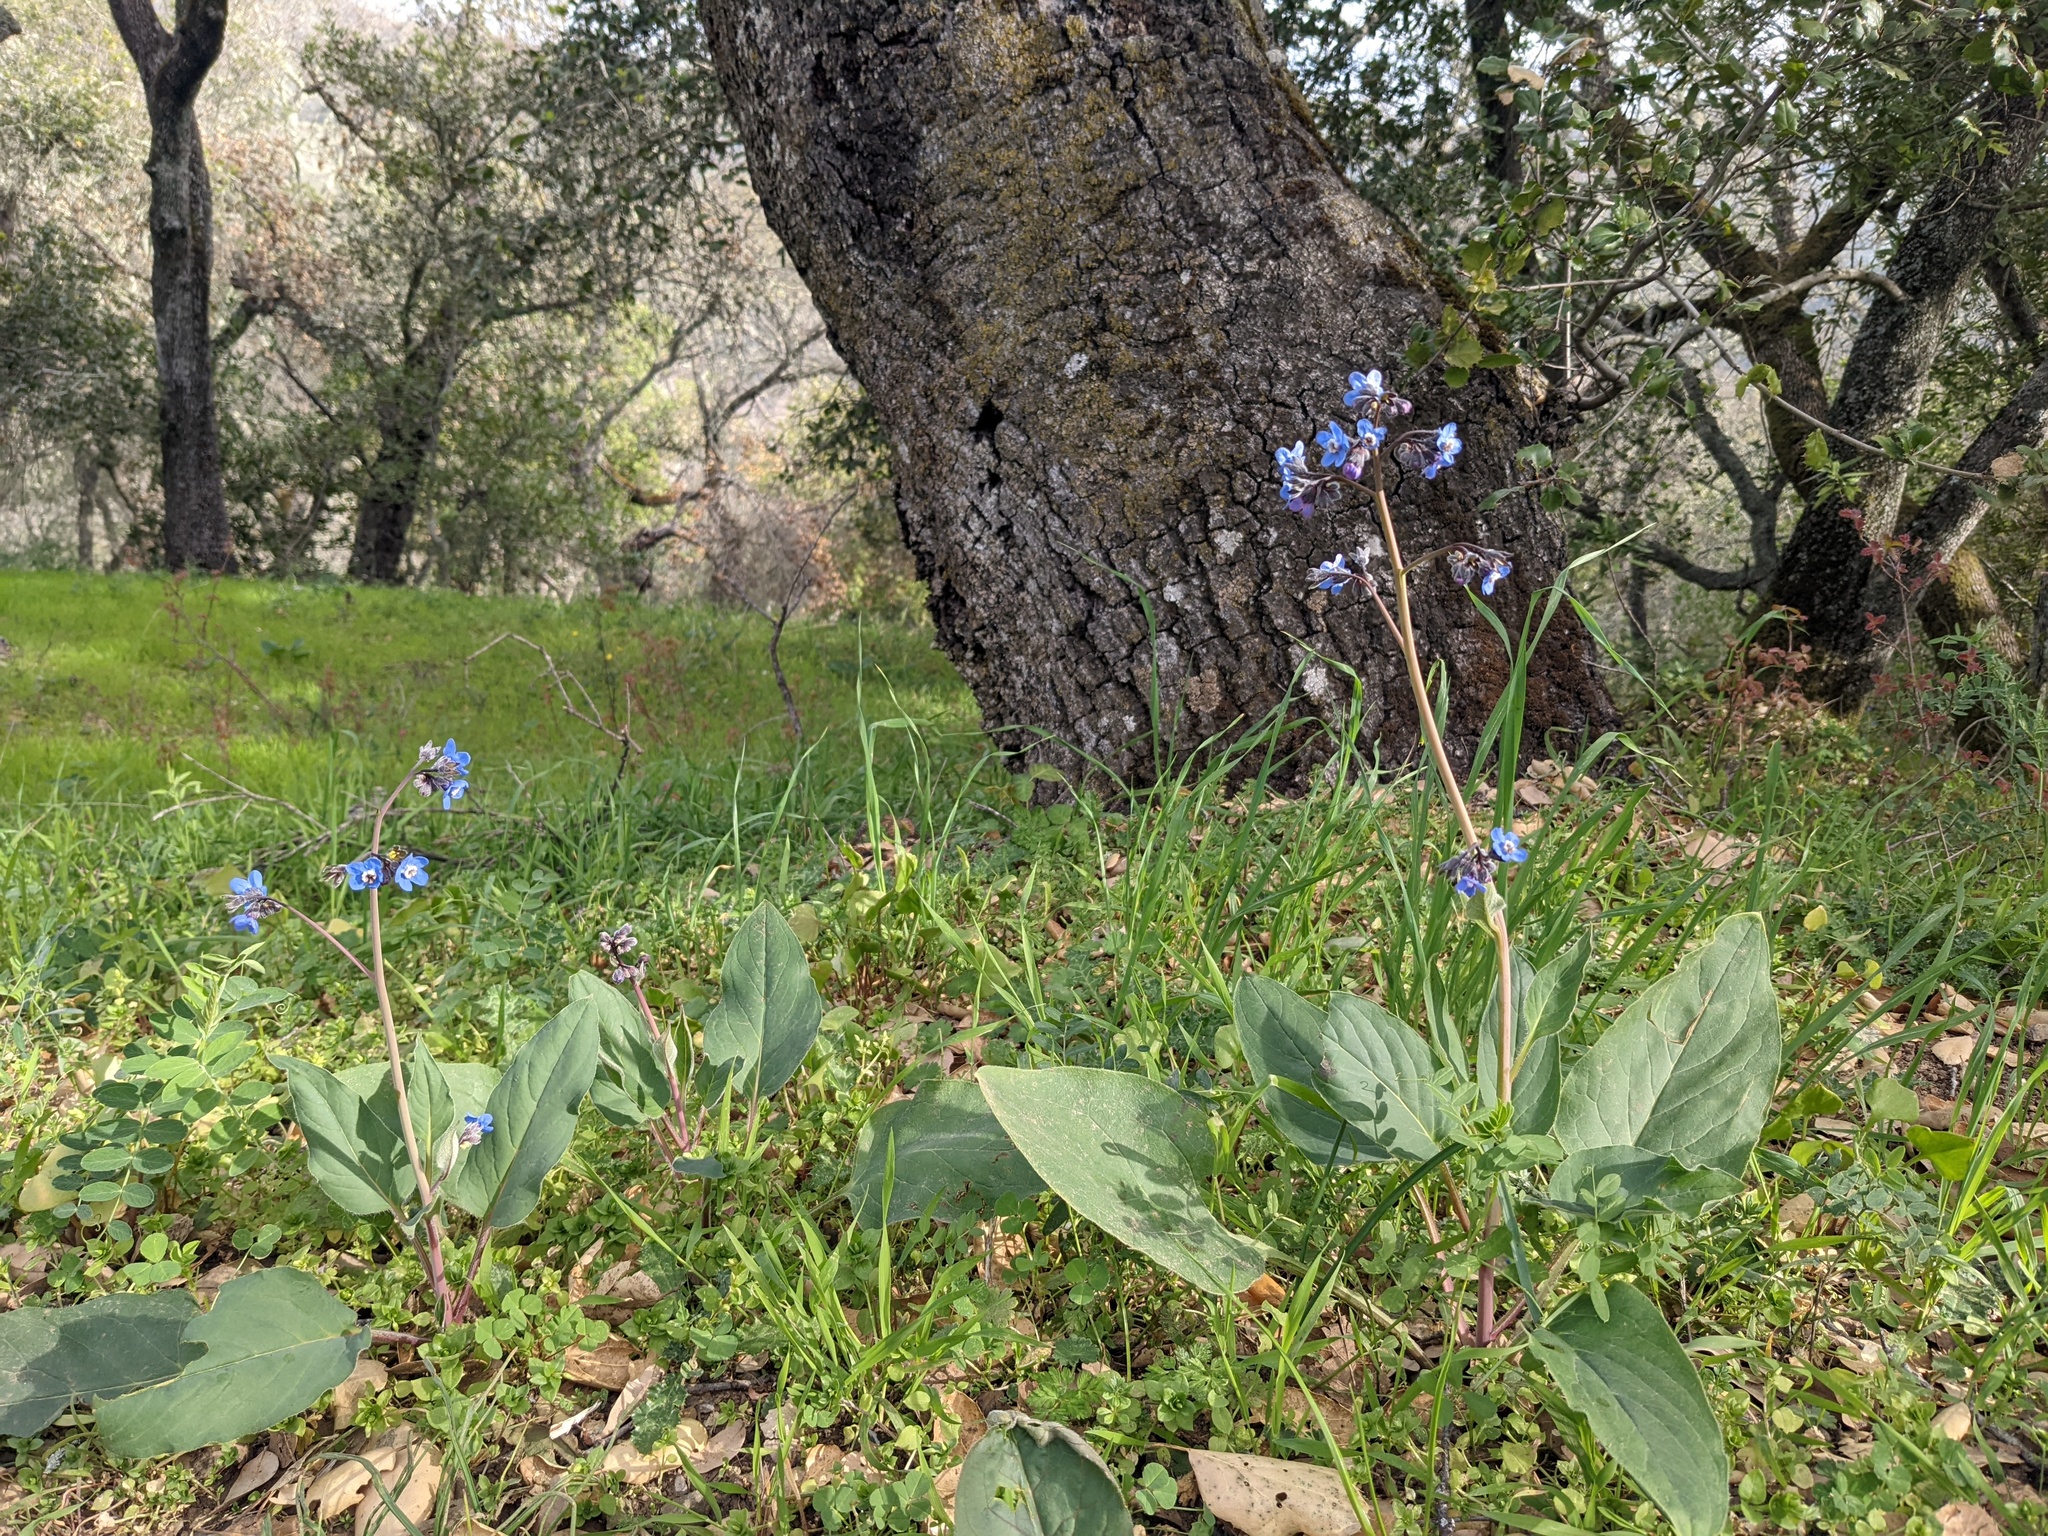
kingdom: Plantae
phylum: Tracheophyta
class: Magnoliopsida
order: Boraginales
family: Boraginaceae
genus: Adelinia
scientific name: Adelinia grande
